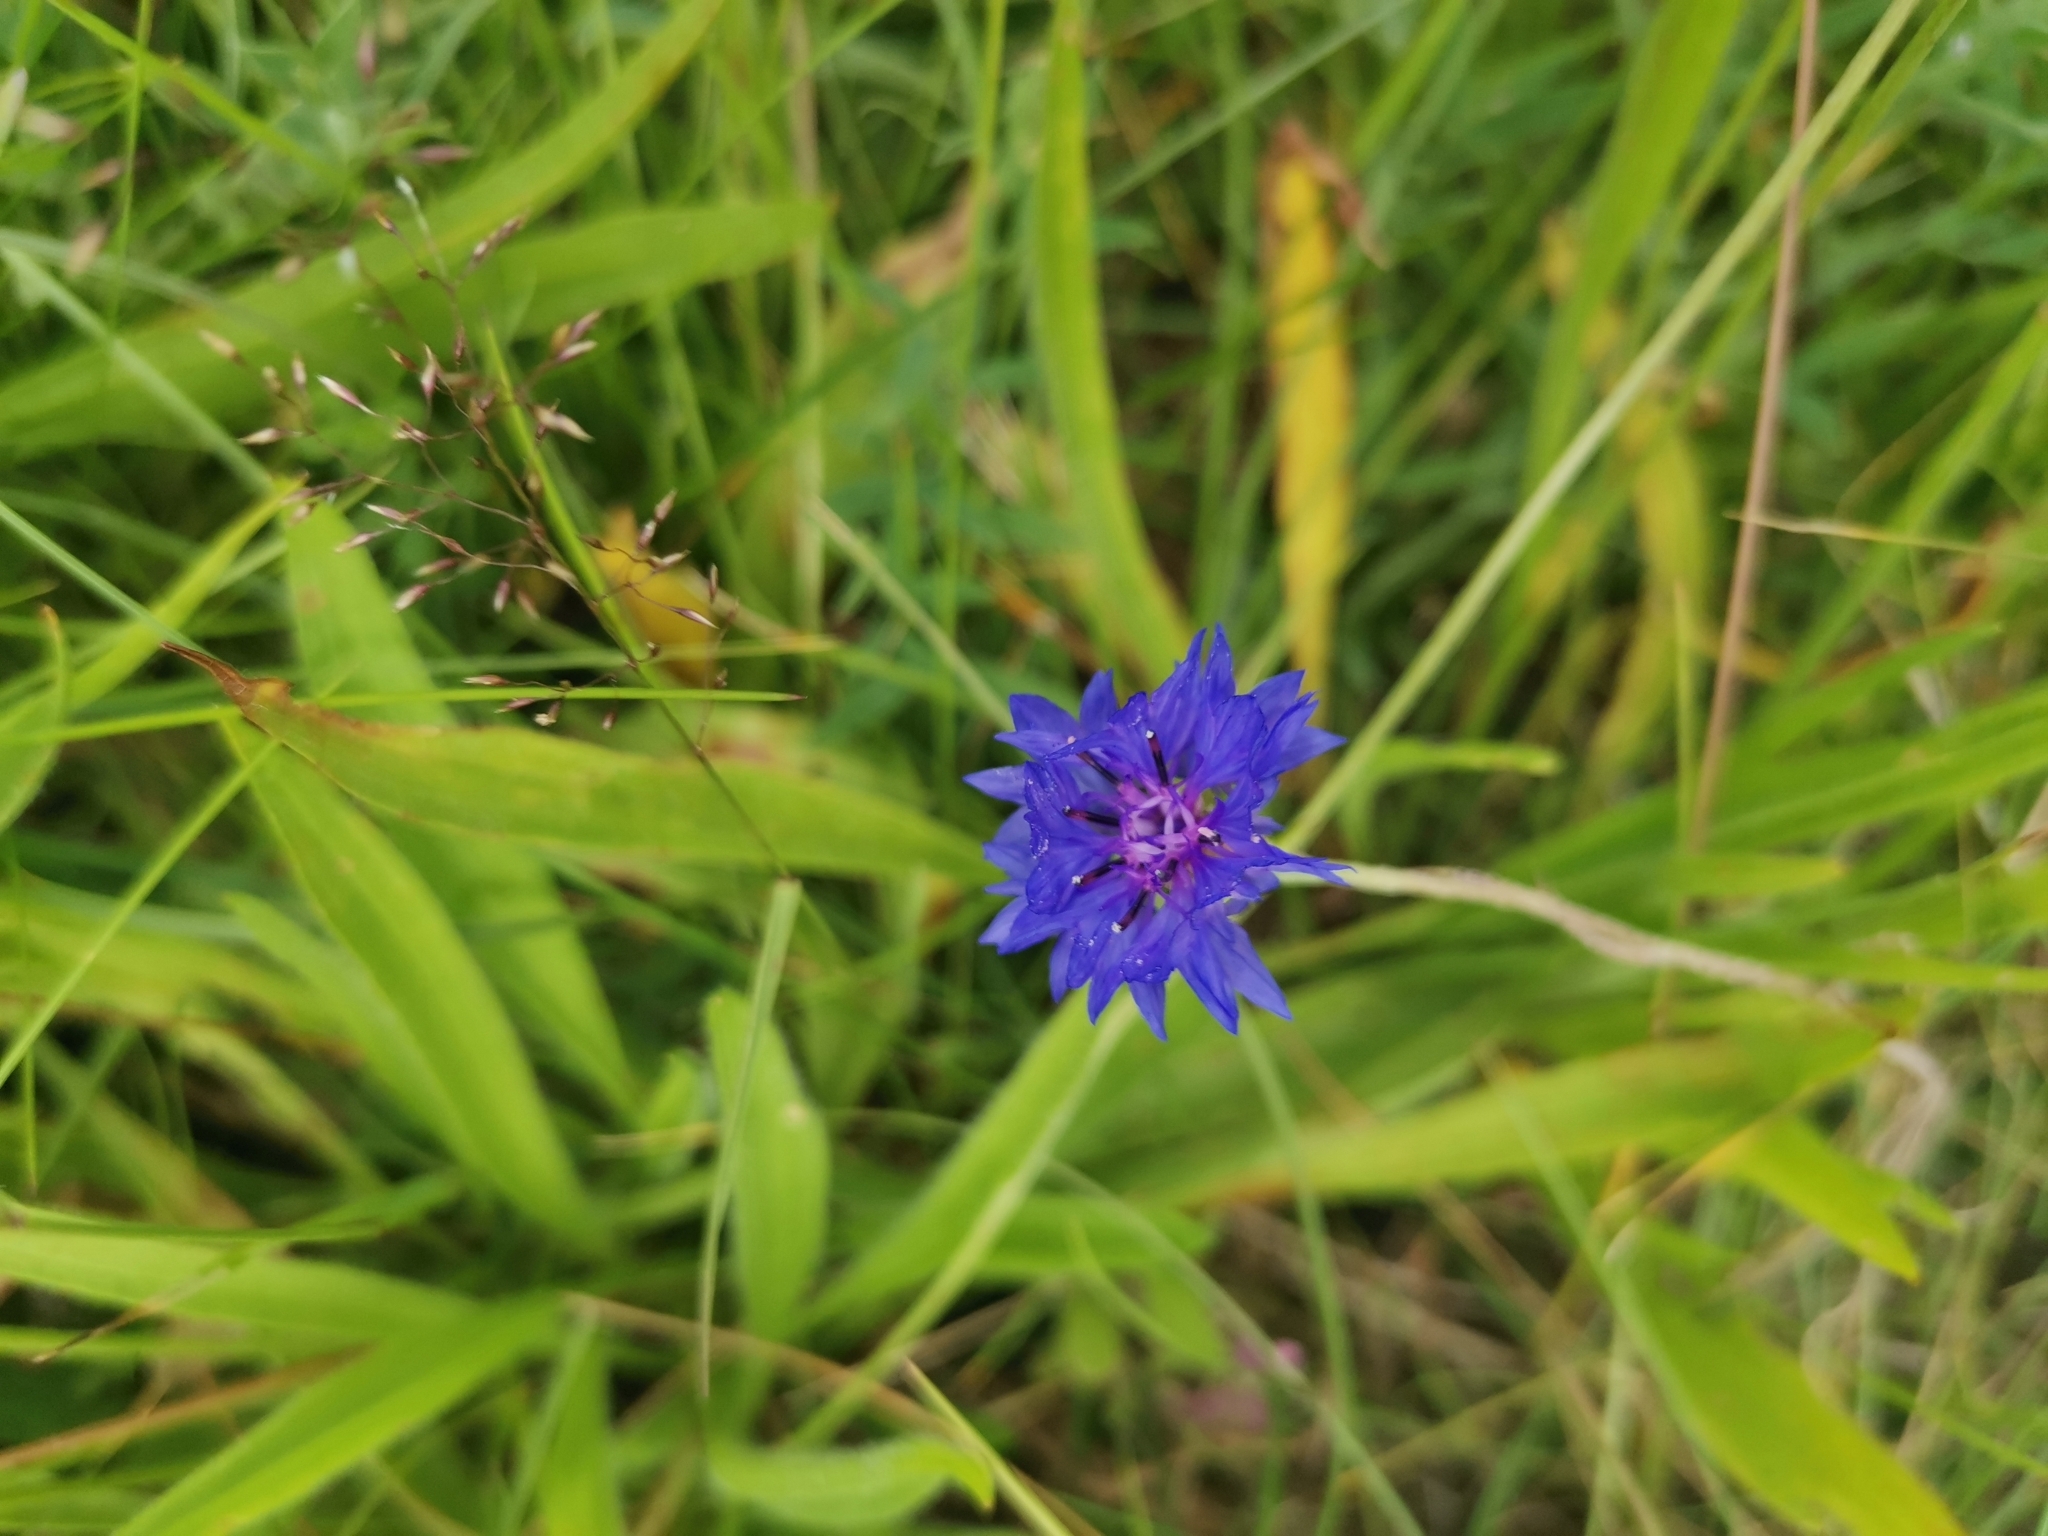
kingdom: Plantae
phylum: Tracheophyta
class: Magnoliopsida
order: Asterales
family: Asteraceae
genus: Centaurea
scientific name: Centaurea cyanus
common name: Cornflower
